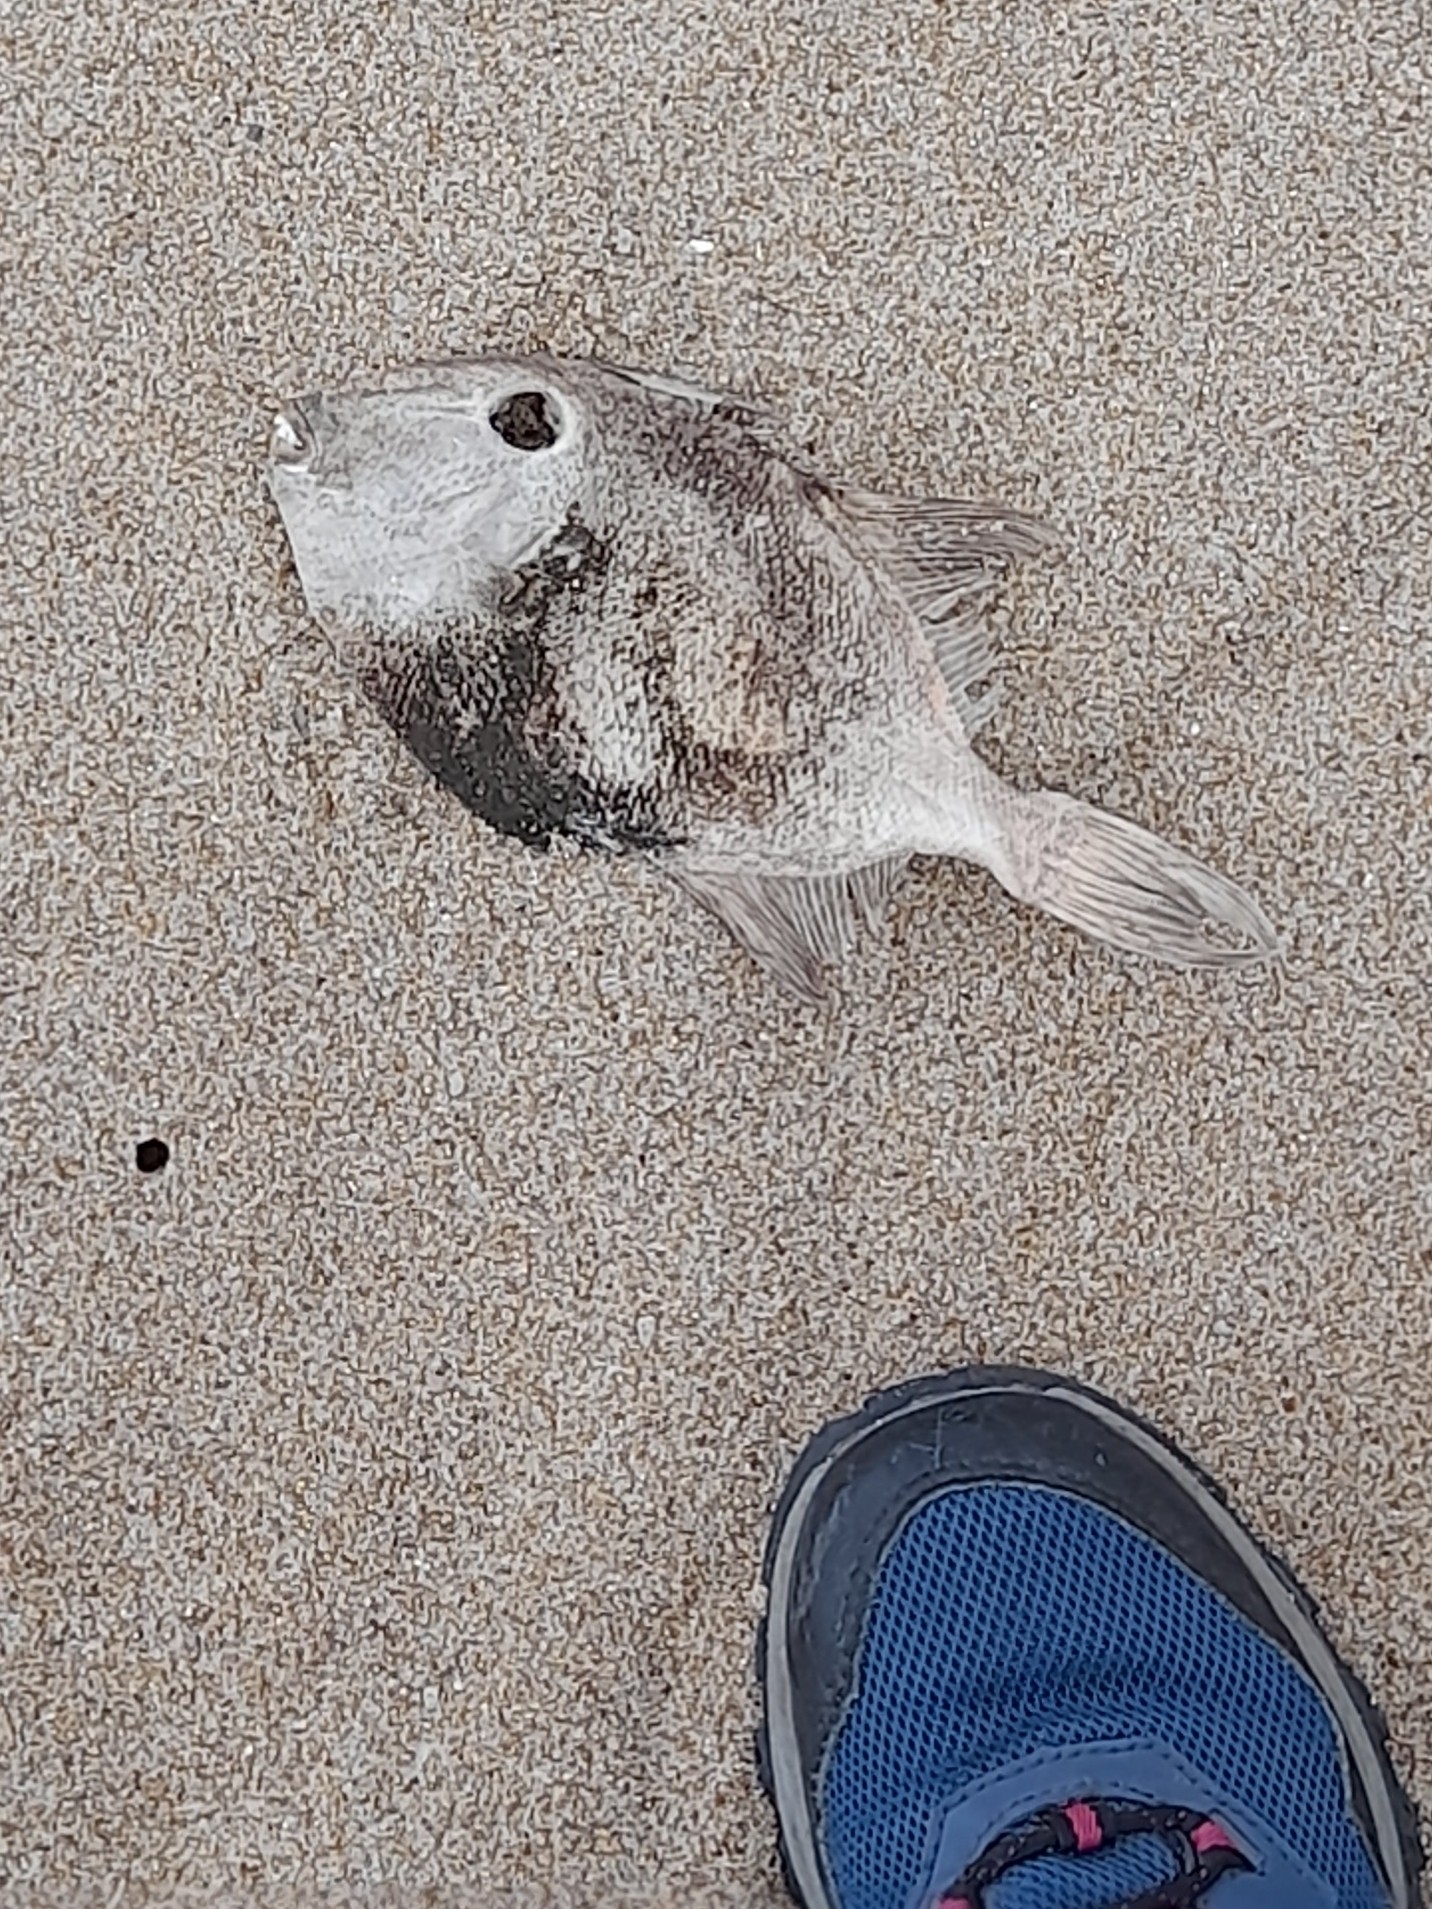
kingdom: Animalia
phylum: Chordata
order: Tetraodontiformes
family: Balistidae
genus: Balistes
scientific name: Balistes capriscus
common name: Grey triggerfish
